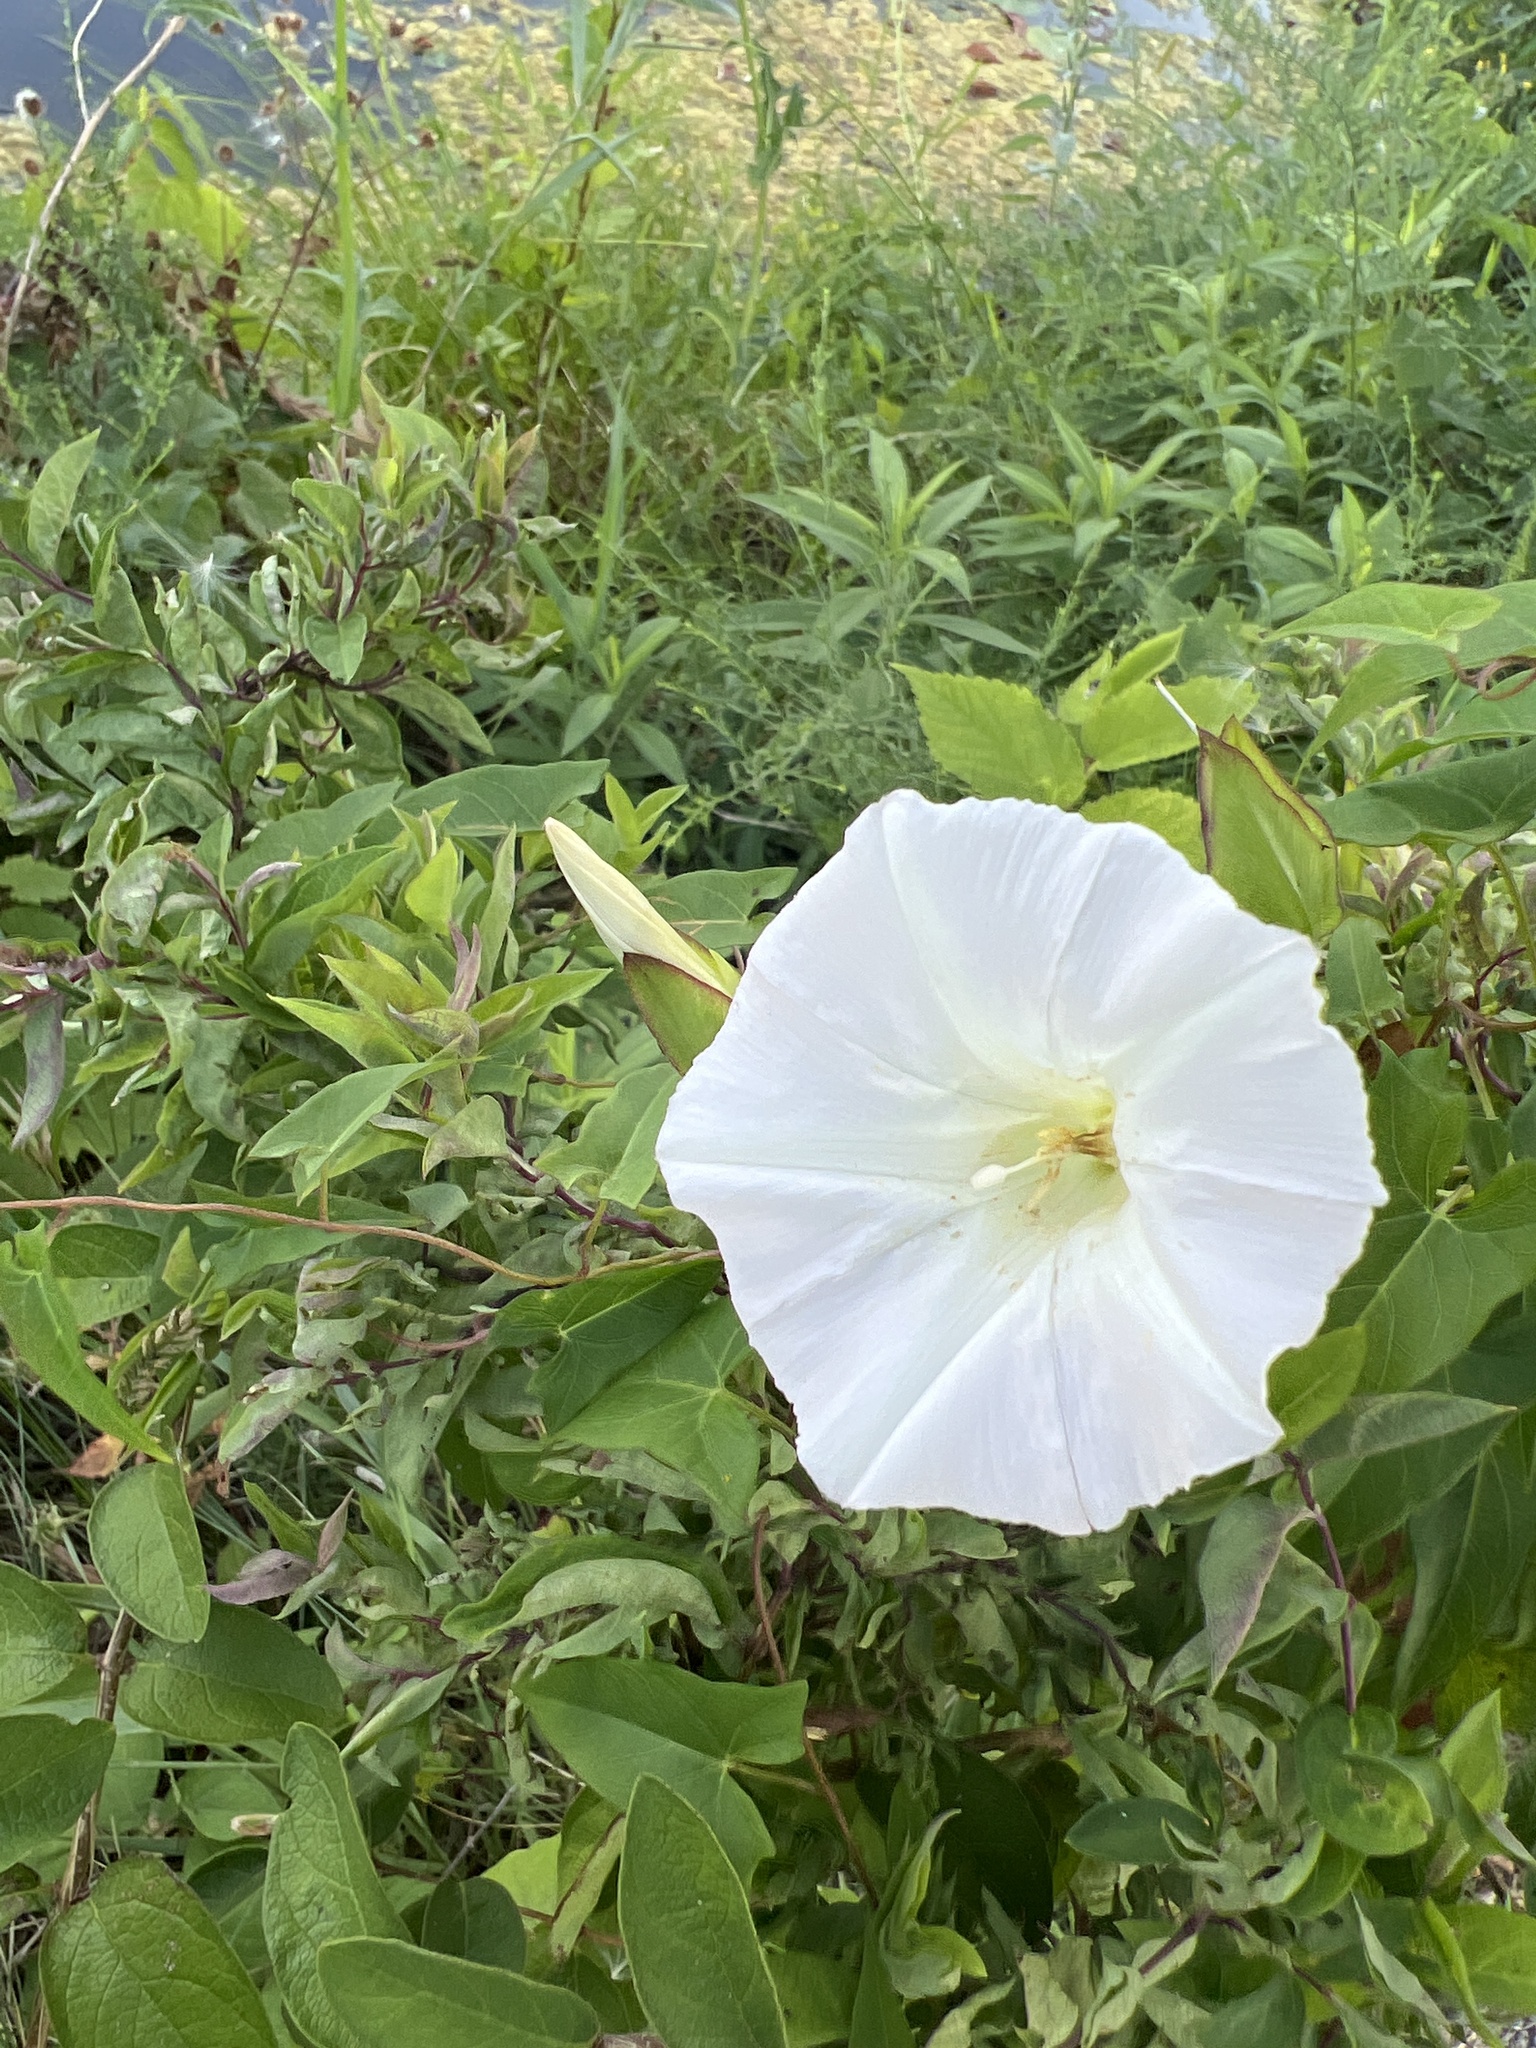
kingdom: Plantae
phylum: Tracheophyta
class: Magnoliopsida
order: Solanales
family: Convolvulaceae
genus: Calystegia
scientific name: Calystegia sepium
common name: Hedge bindweed
